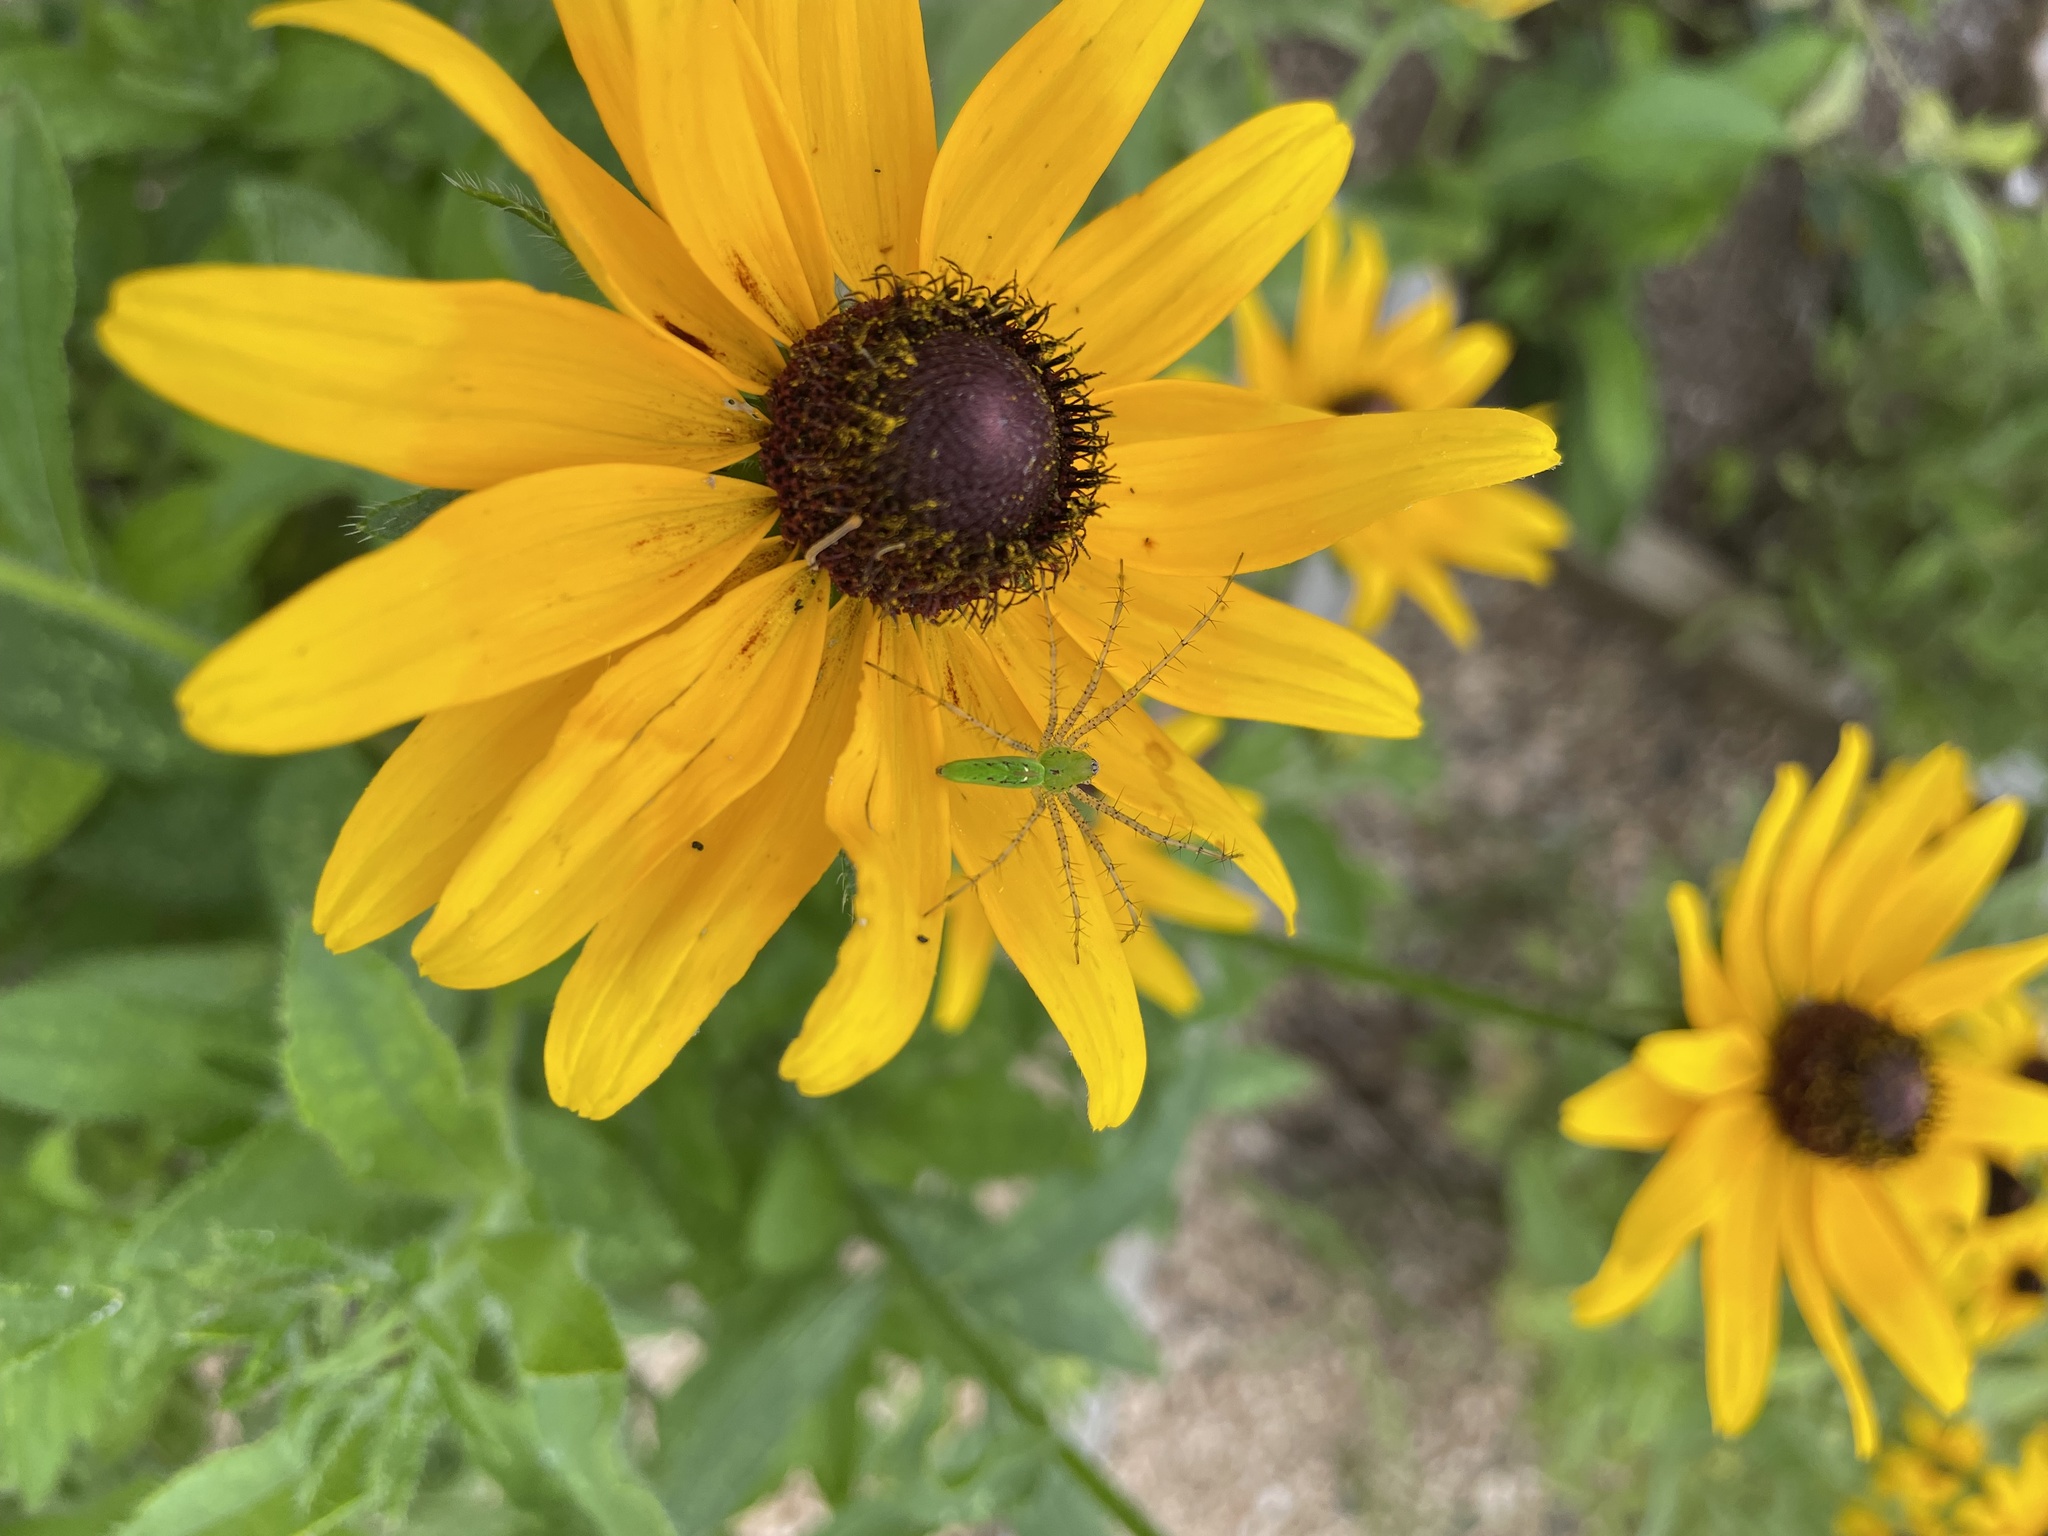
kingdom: Animalia
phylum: Arthropoda
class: Arachnida
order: Araneae
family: Oxyopidae
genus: Peucetia
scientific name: Peucetia viridans
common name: Lynx spiders
